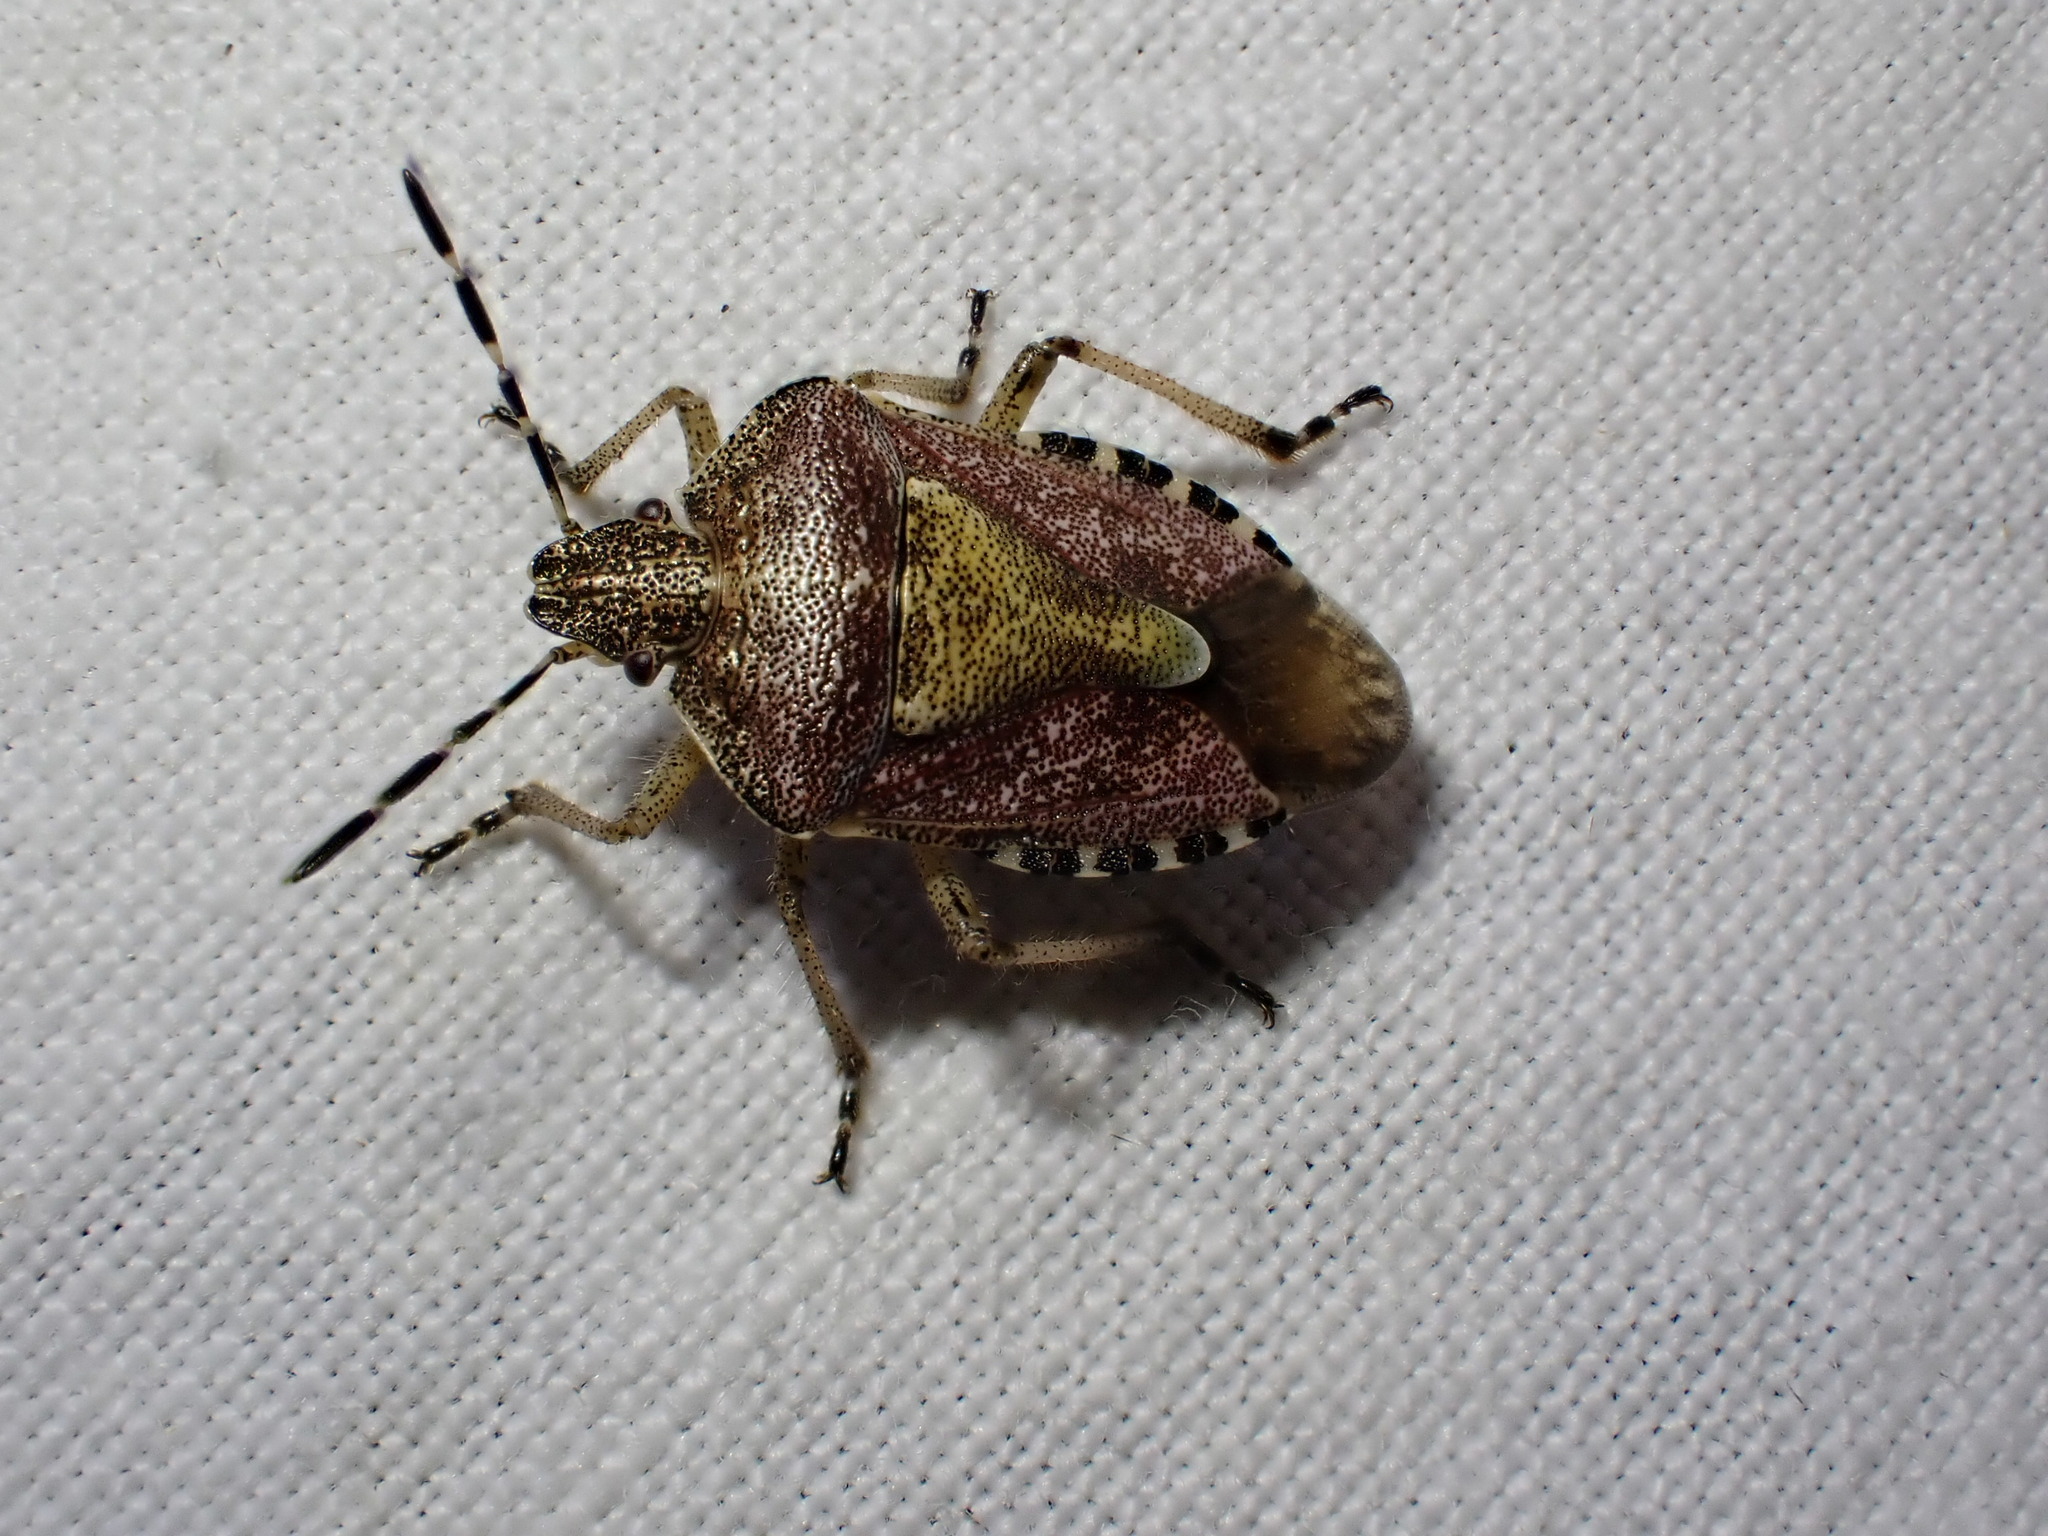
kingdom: Animalia
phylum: Arthropoda
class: Insecta
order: Hemiptera
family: Pentatomidae
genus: Dolycoris
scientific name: Dolycoris baccarum
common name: Sloe bug
